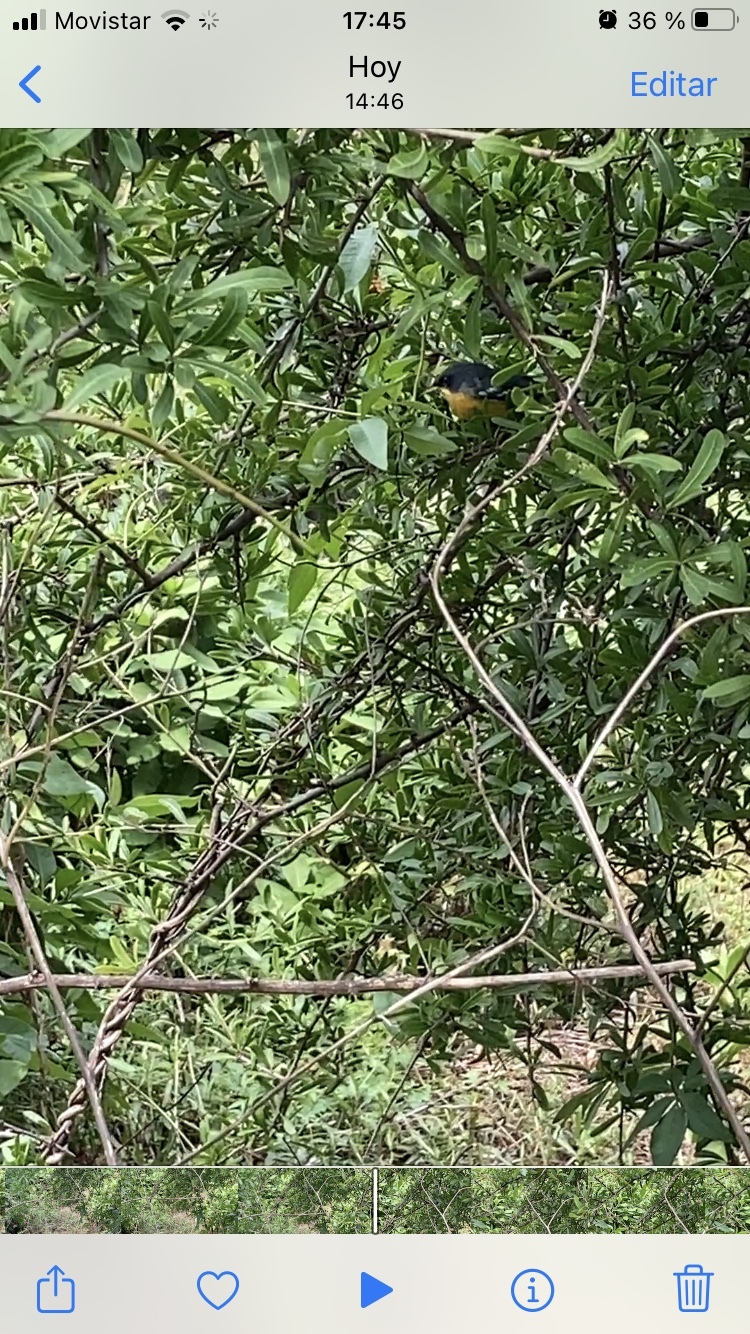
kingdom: Animalia
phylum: Chordata
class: Aves
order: Passeriformes
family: Parulidae
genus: Setophaga
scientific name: Setophaga pitiayumi
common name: Tropical parula
